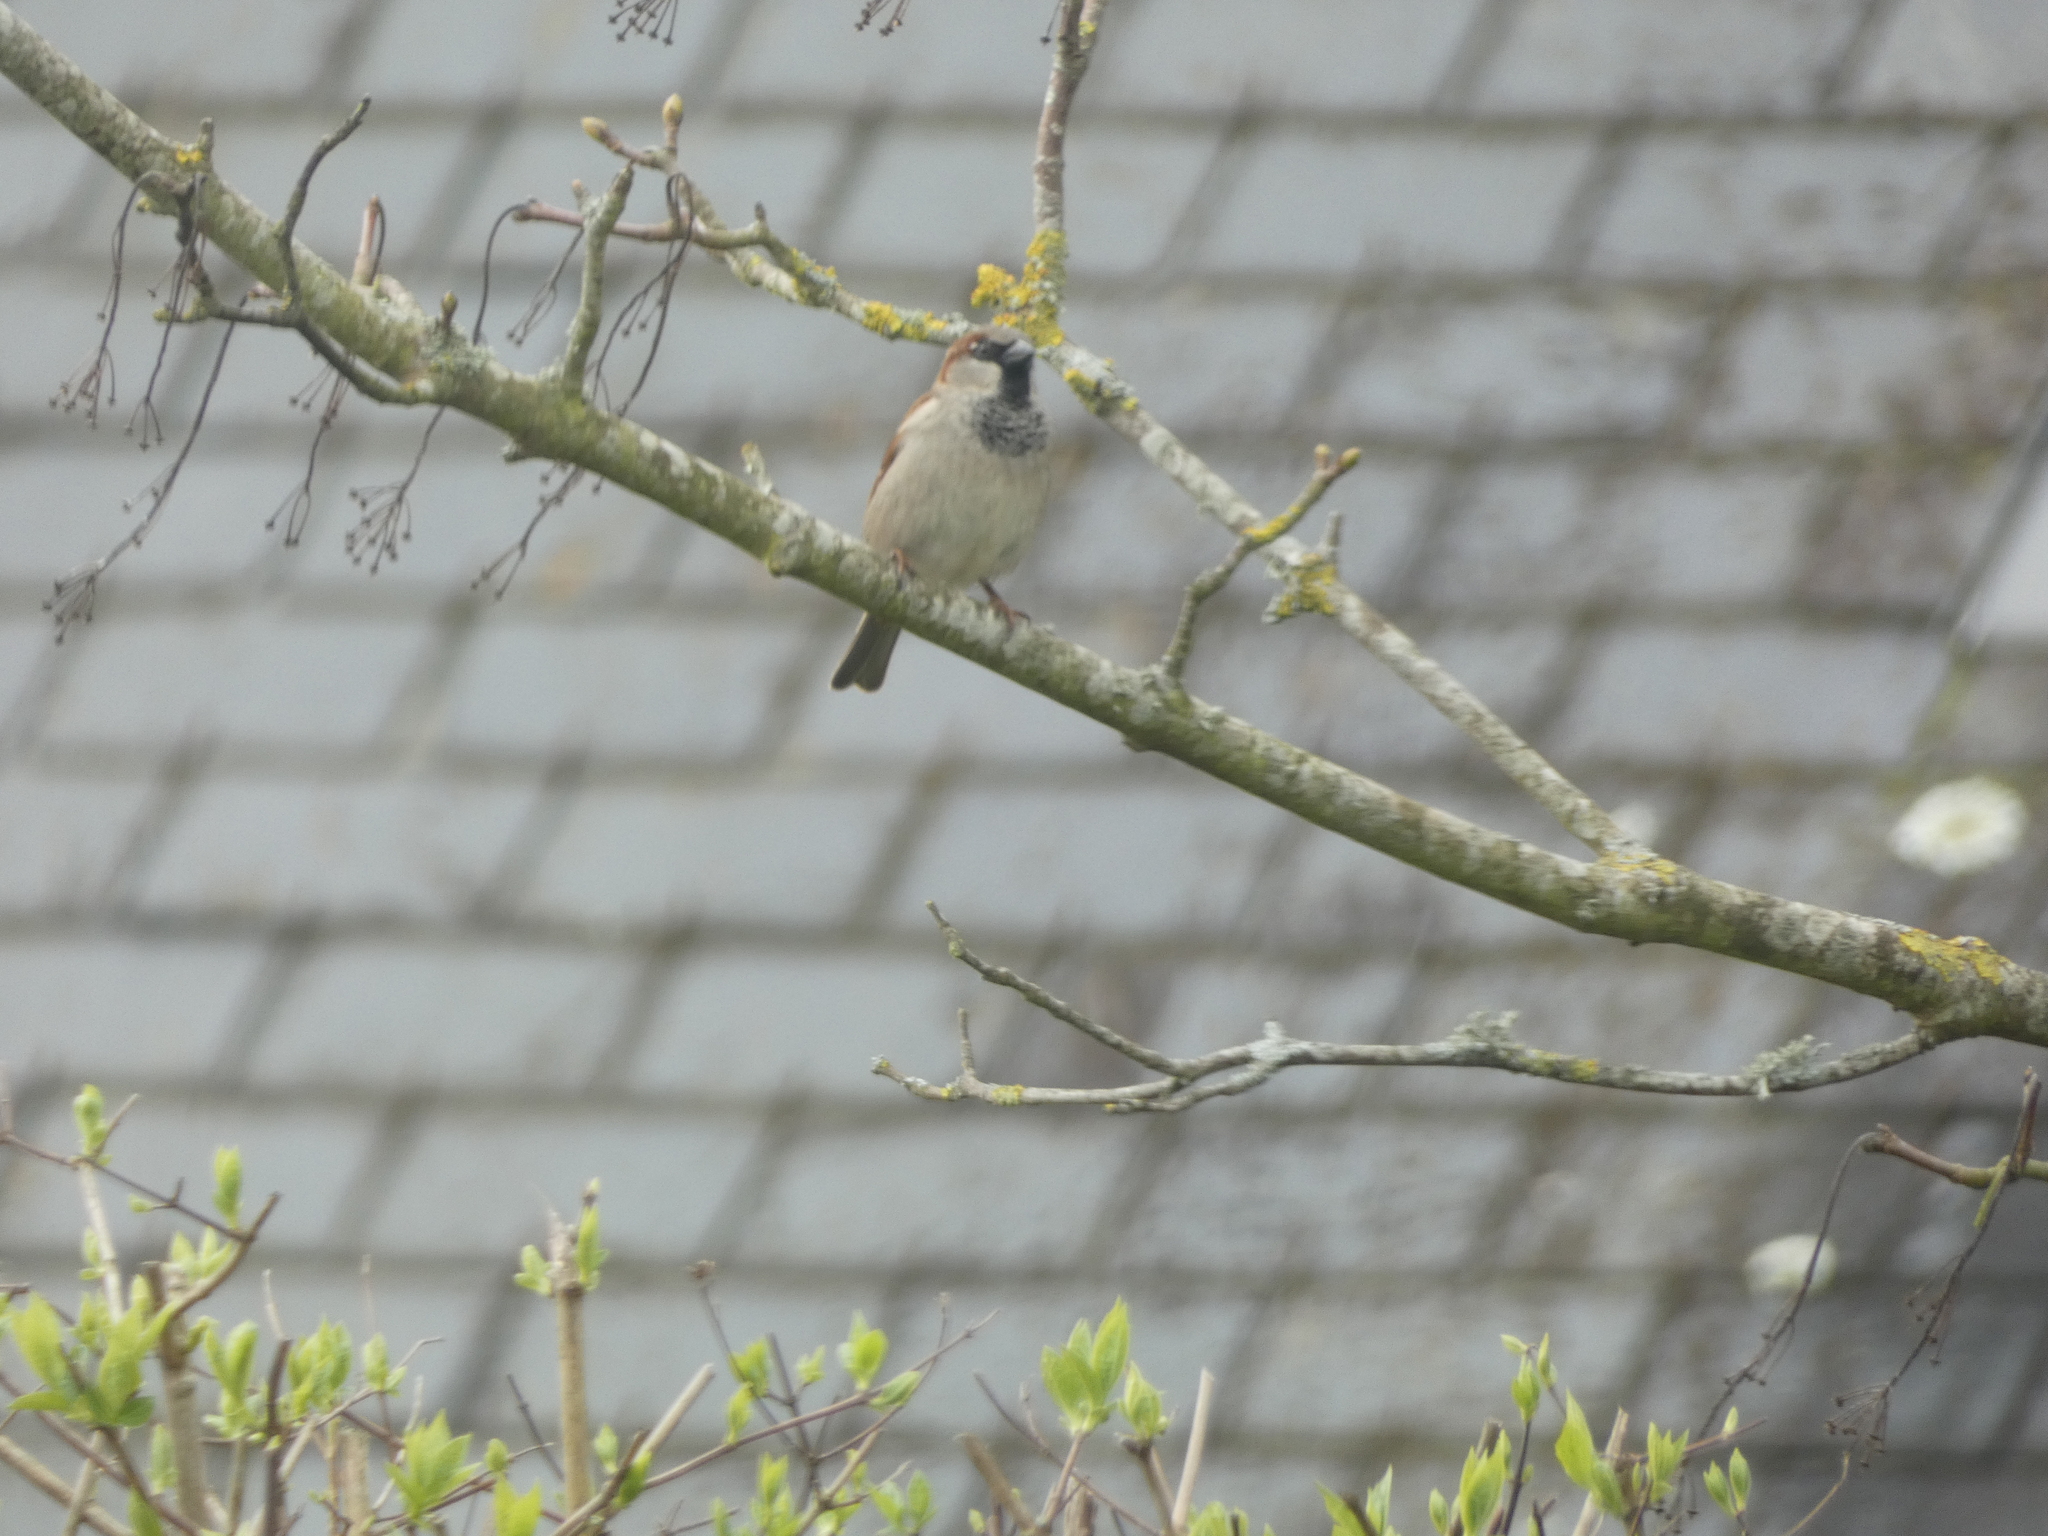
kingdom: Animalia
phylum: Chordata
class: Aves
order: Passeriformes
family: Passeridae
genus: Passer
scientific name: Passer domesticus
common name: House sparrow
